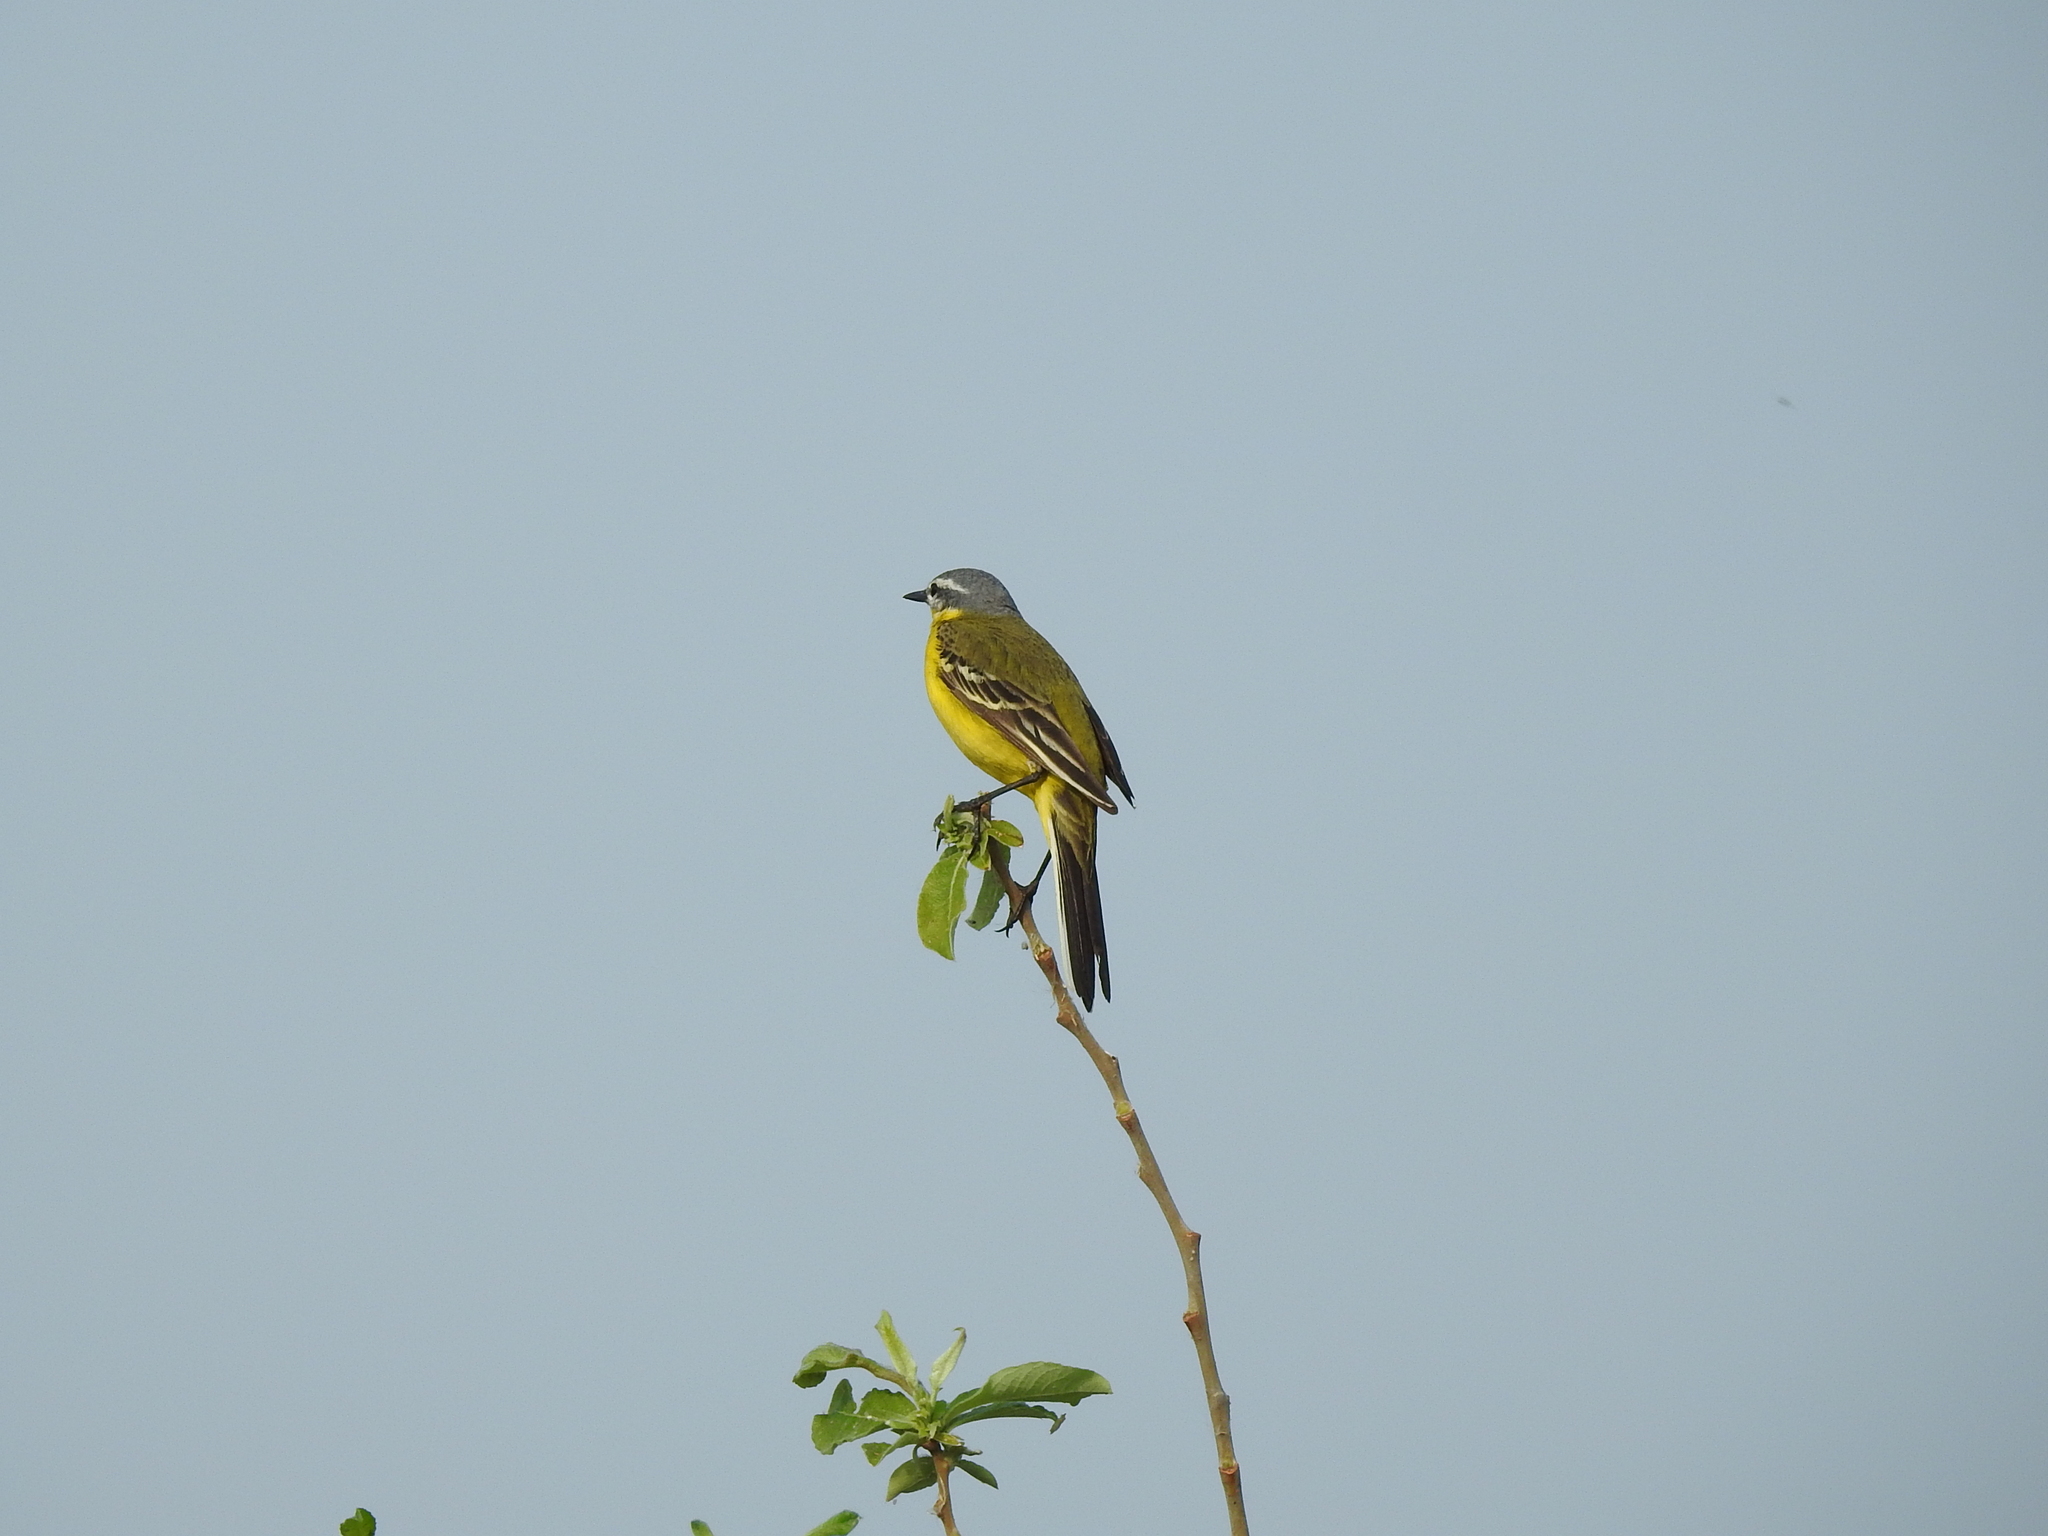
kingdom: Animalia
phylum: Chordata
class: Aves
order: Passeriformes
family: Motacillidae
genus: Motacilla
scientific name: Motacilla flava
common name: Western yellow wagtail
